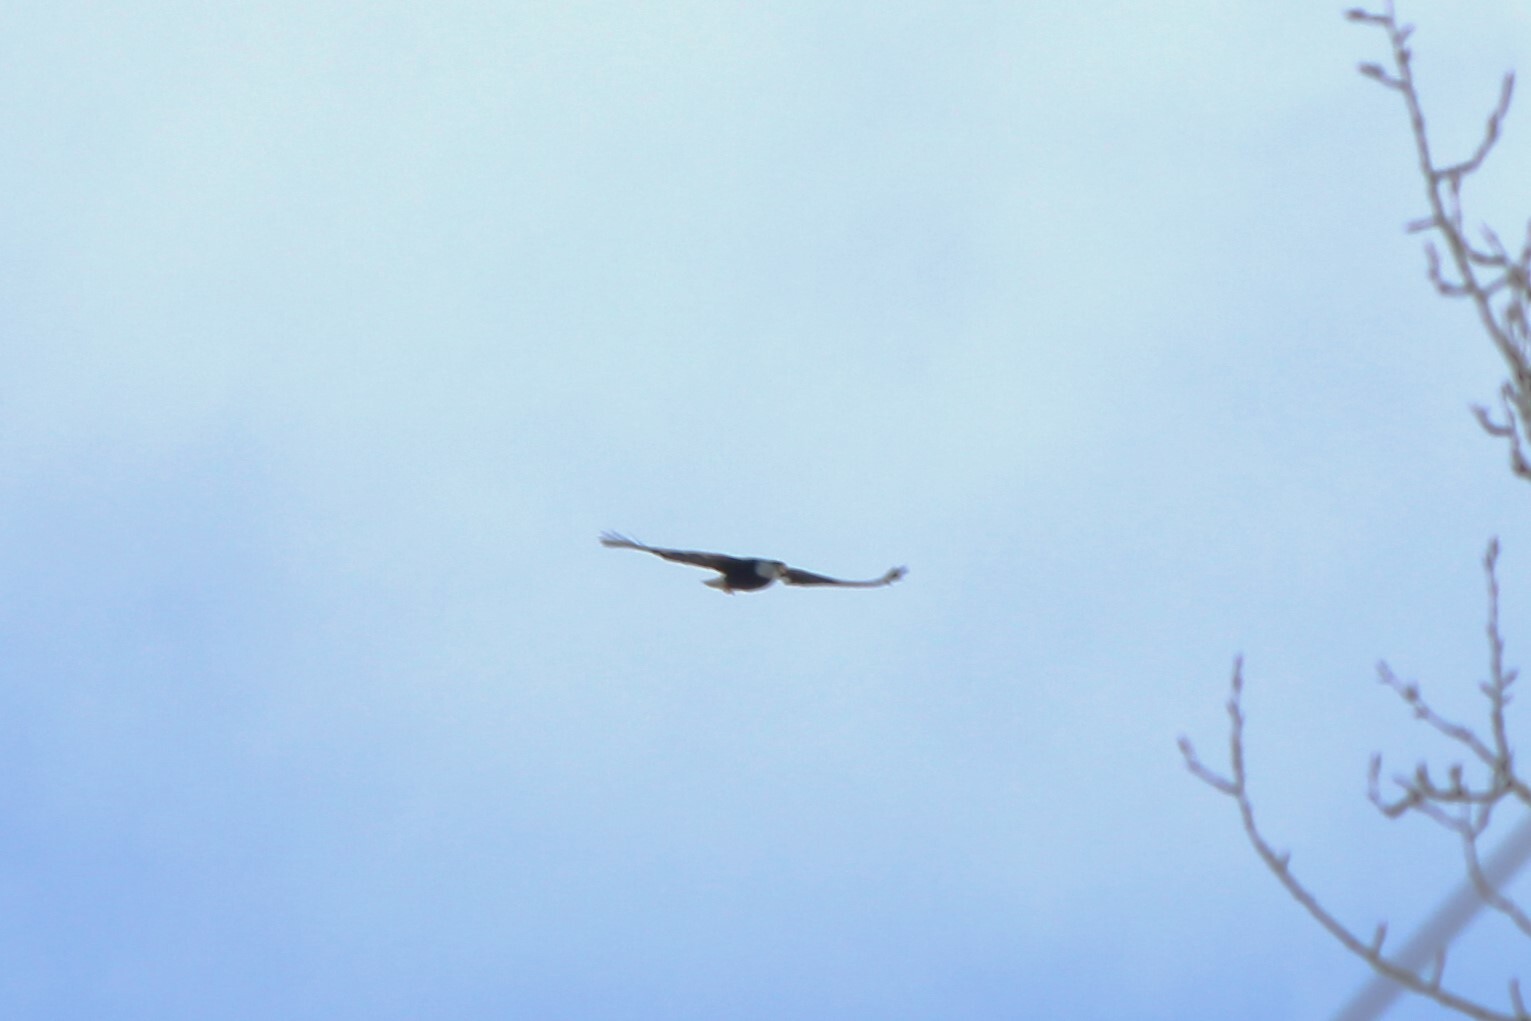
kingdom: Animalia
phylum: Chordata
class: Aves
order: Accipitriformes
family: Accipitridae
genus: Haliaeetus
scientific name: Haliaeetus leucocephalus
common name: Bald eagle
